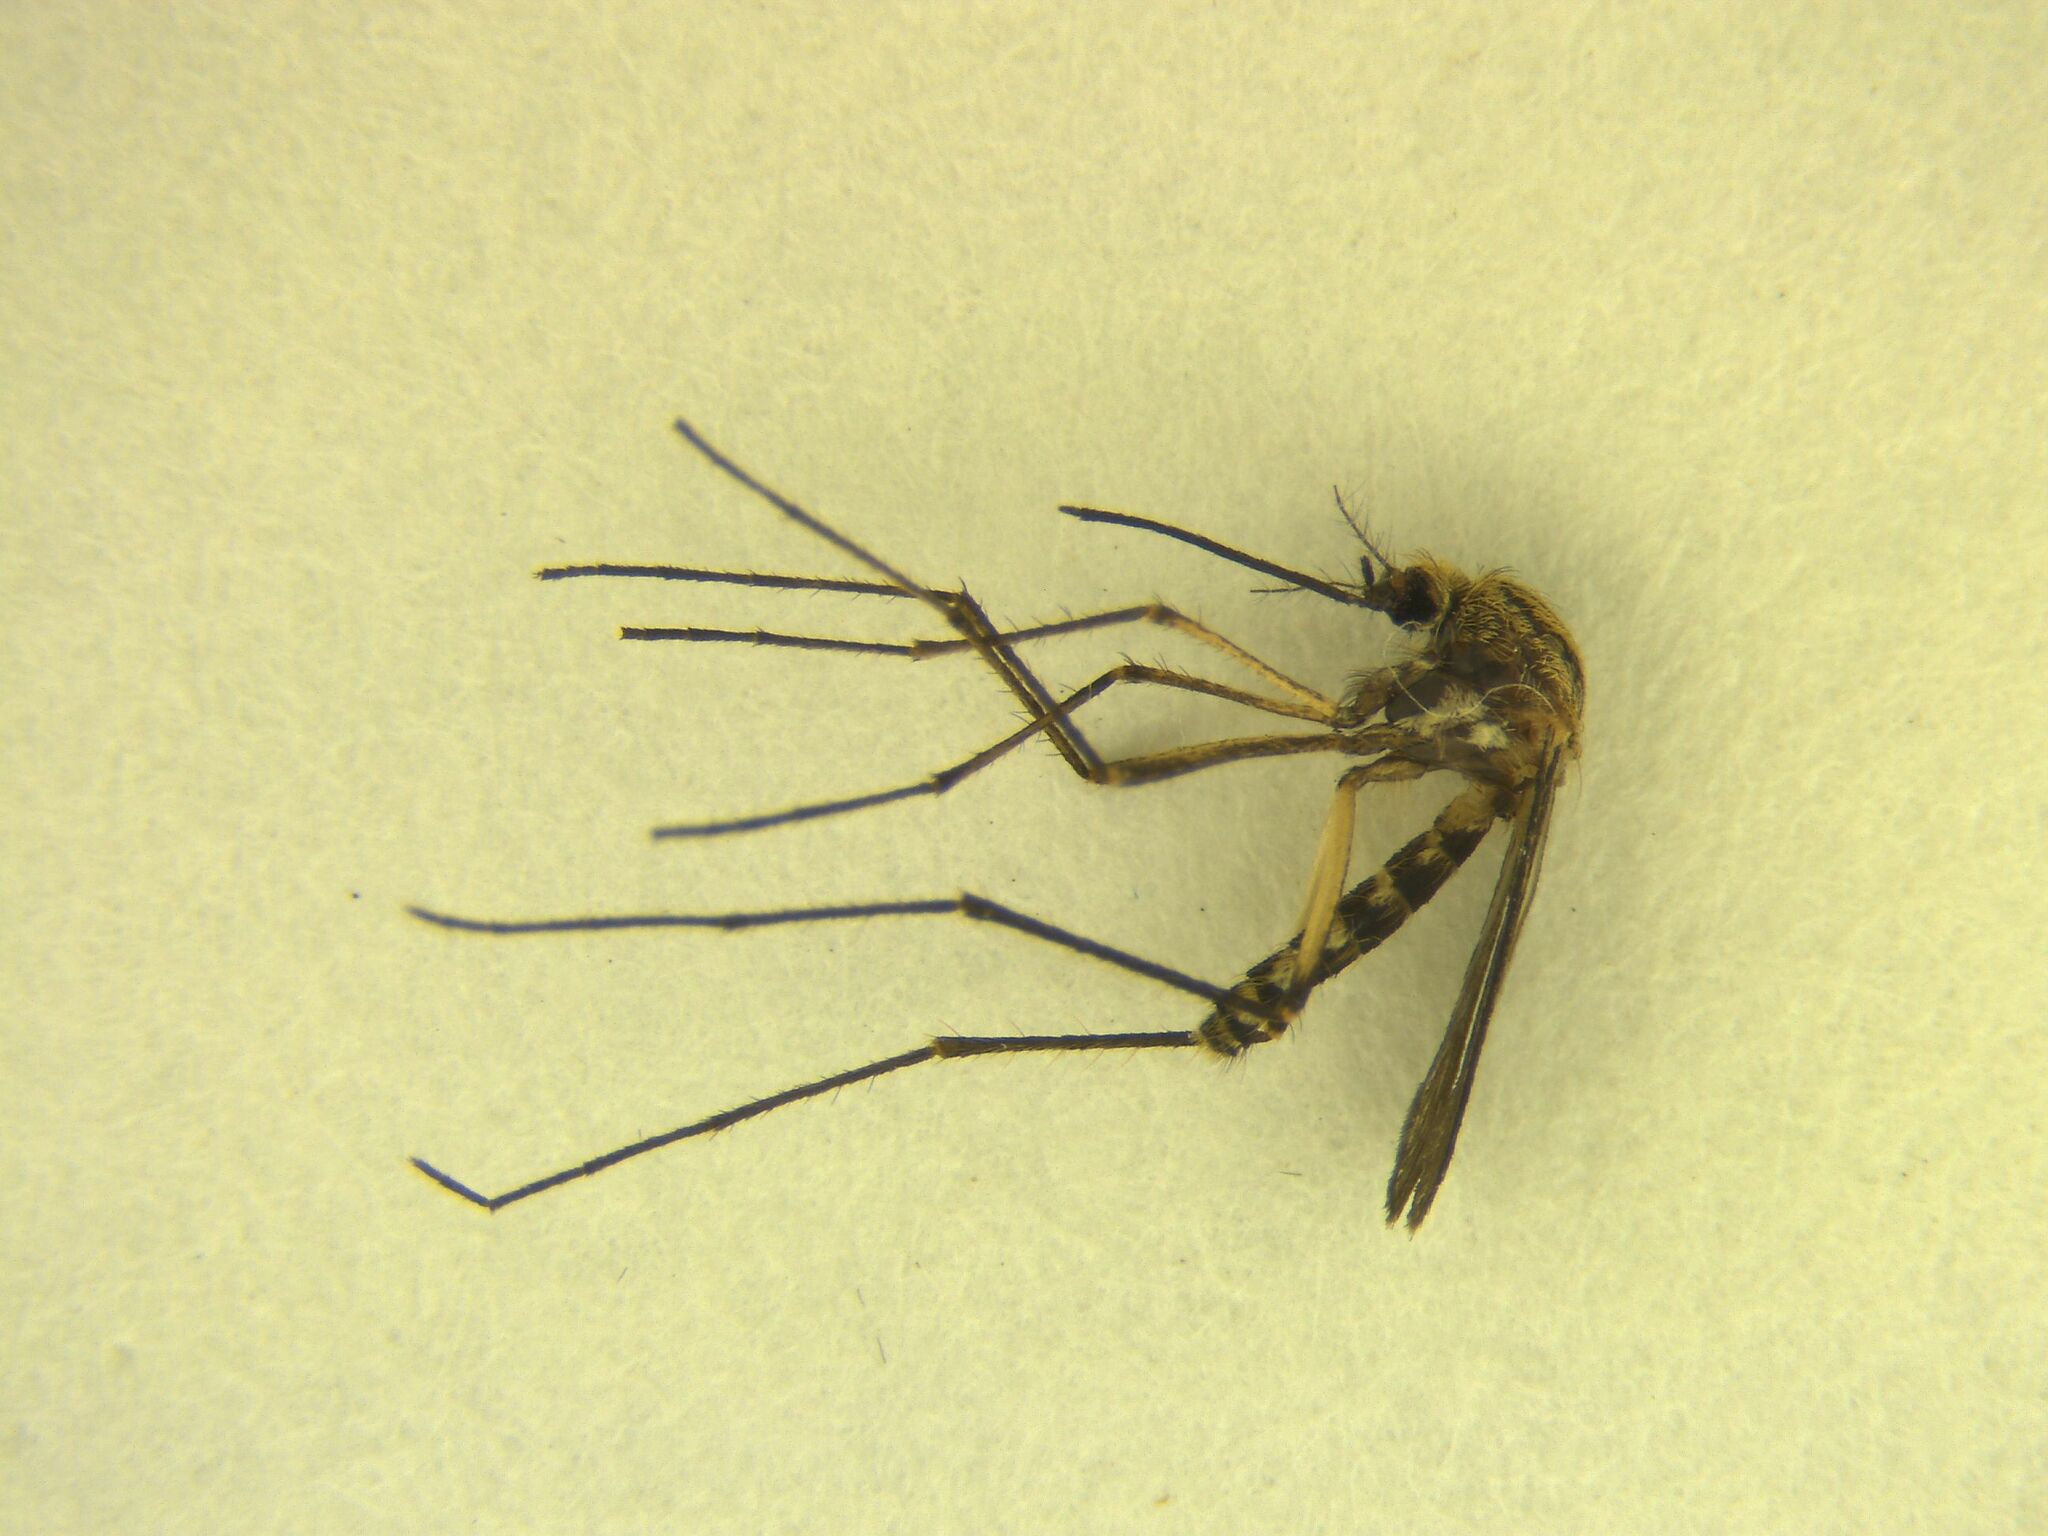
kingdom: Animalia
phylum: Arthropoda
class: Insecta
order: Diptera
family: Culicidae
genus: Coquillettidia
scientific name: Coquillettidia iracunda
